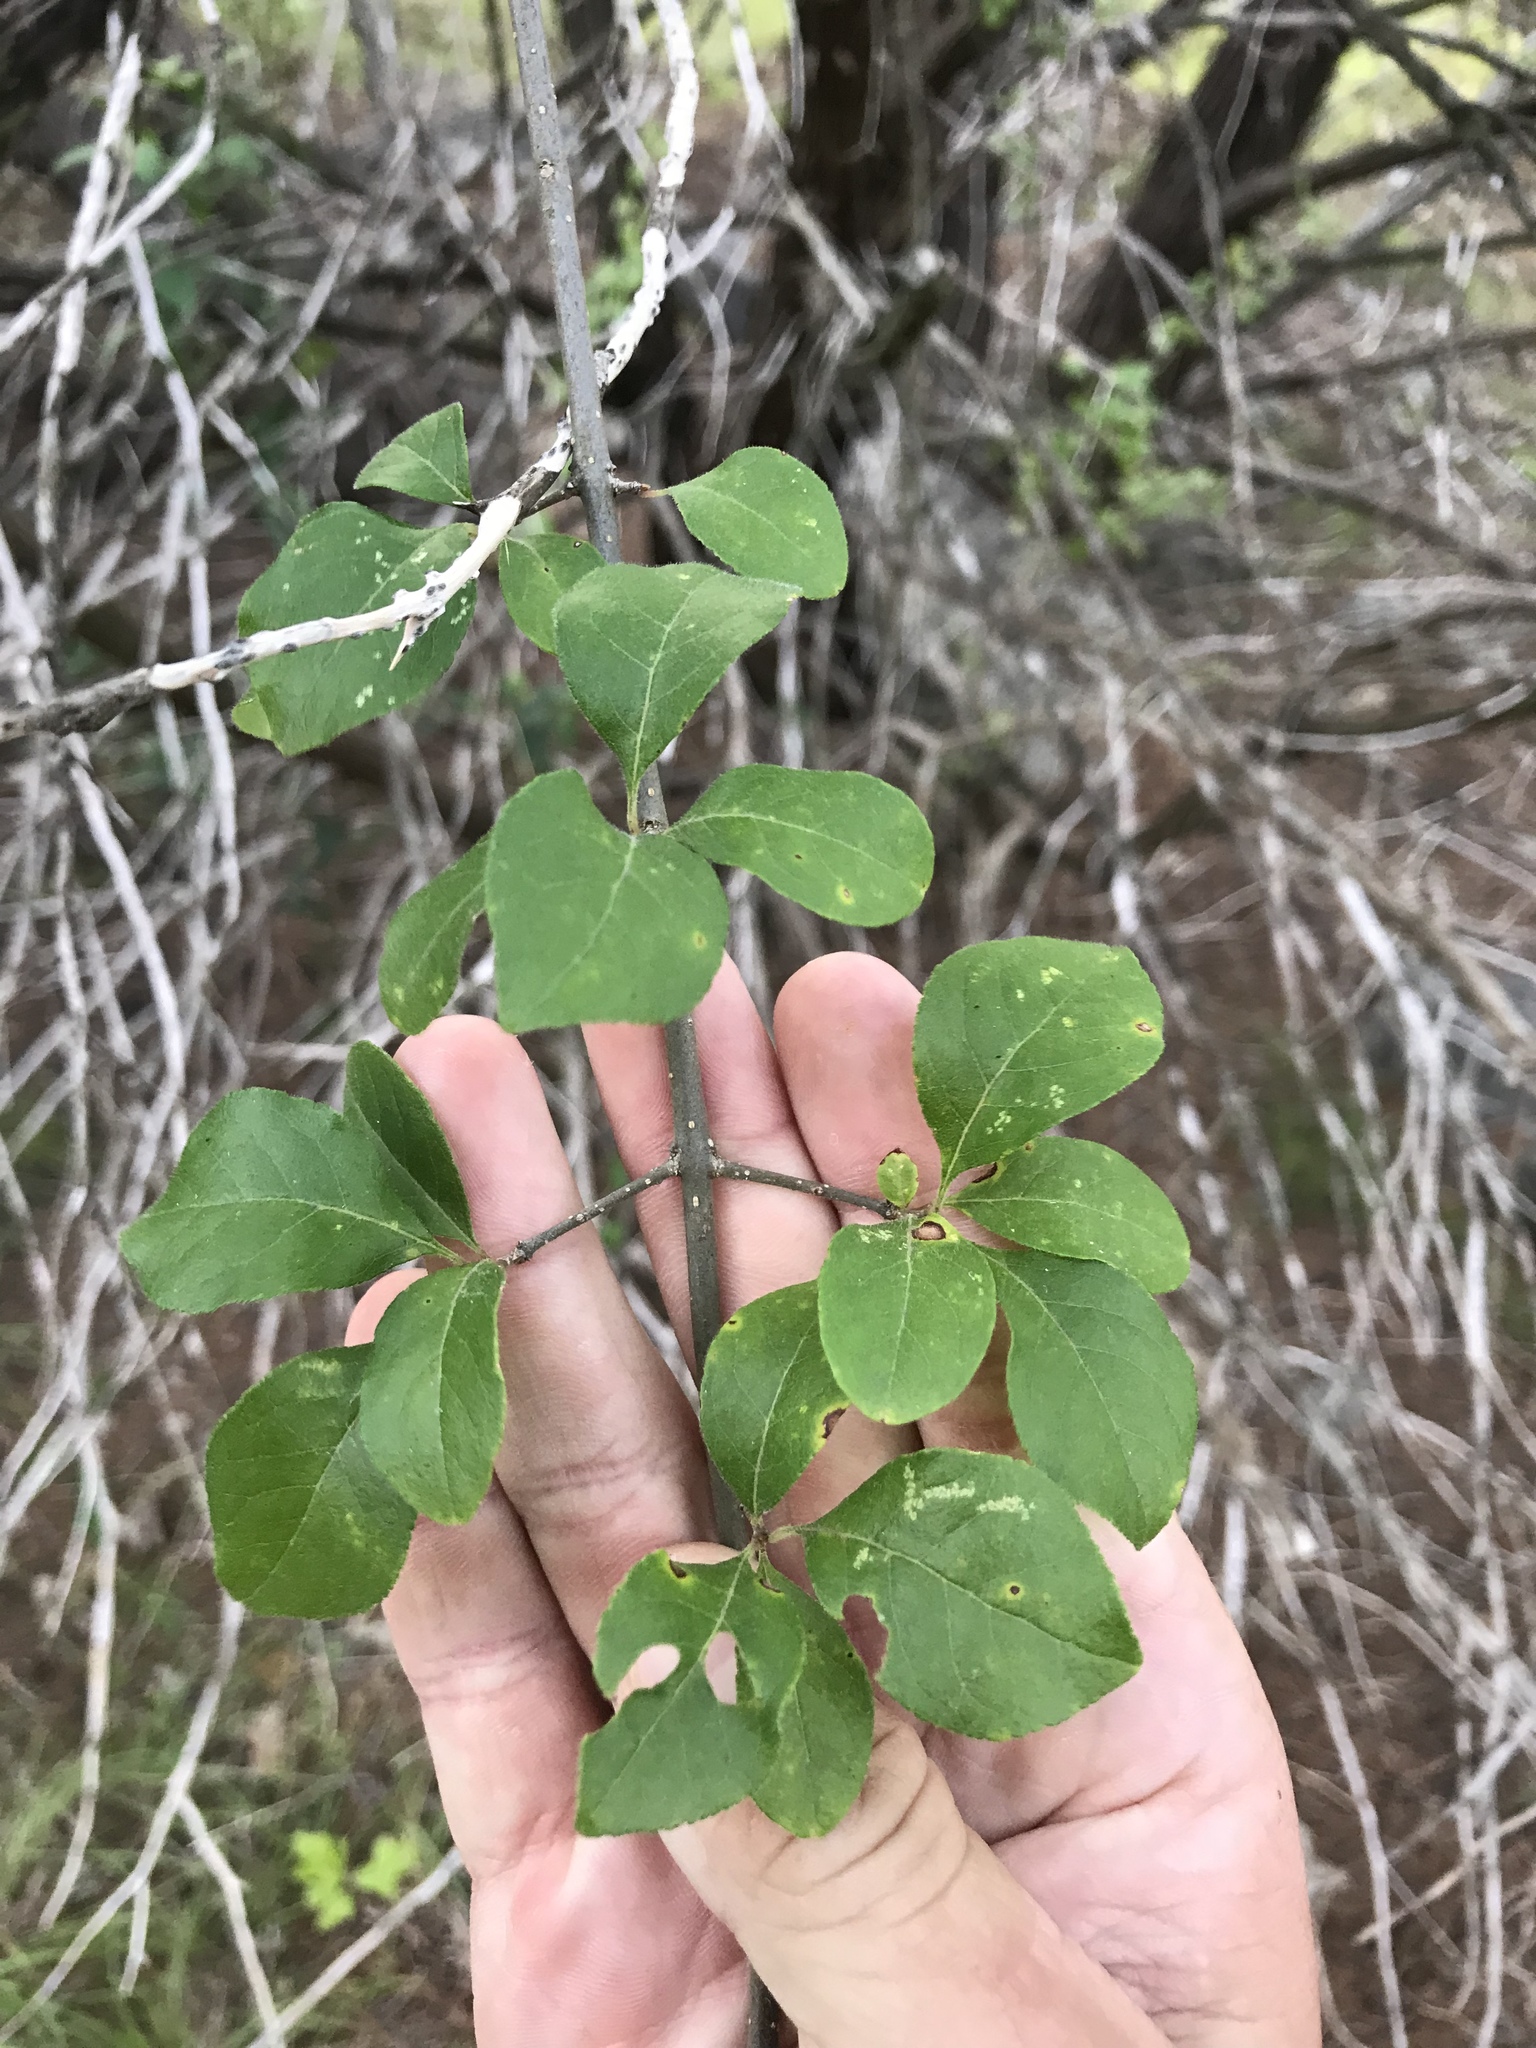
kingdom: Plantae
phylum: Tracheophyta
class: Magnoliopsida
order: Lamiales
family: Oleaceae
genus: Forestiera
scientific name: Forestiera pubescens
